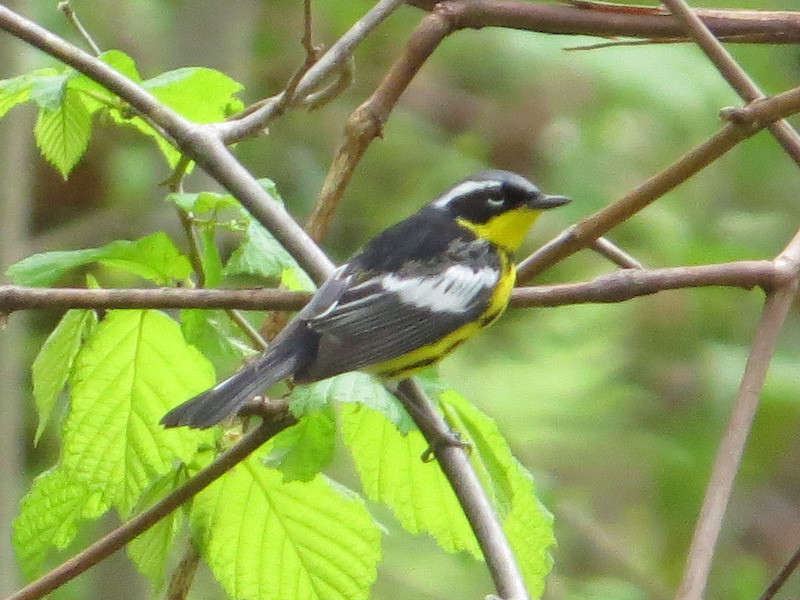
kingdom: Animalia
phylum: Chordata
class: Aves
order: Passeriformes
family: Parulidae
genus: Setophaga
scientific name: Setophaga magnolia
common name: Magnolia warbler
